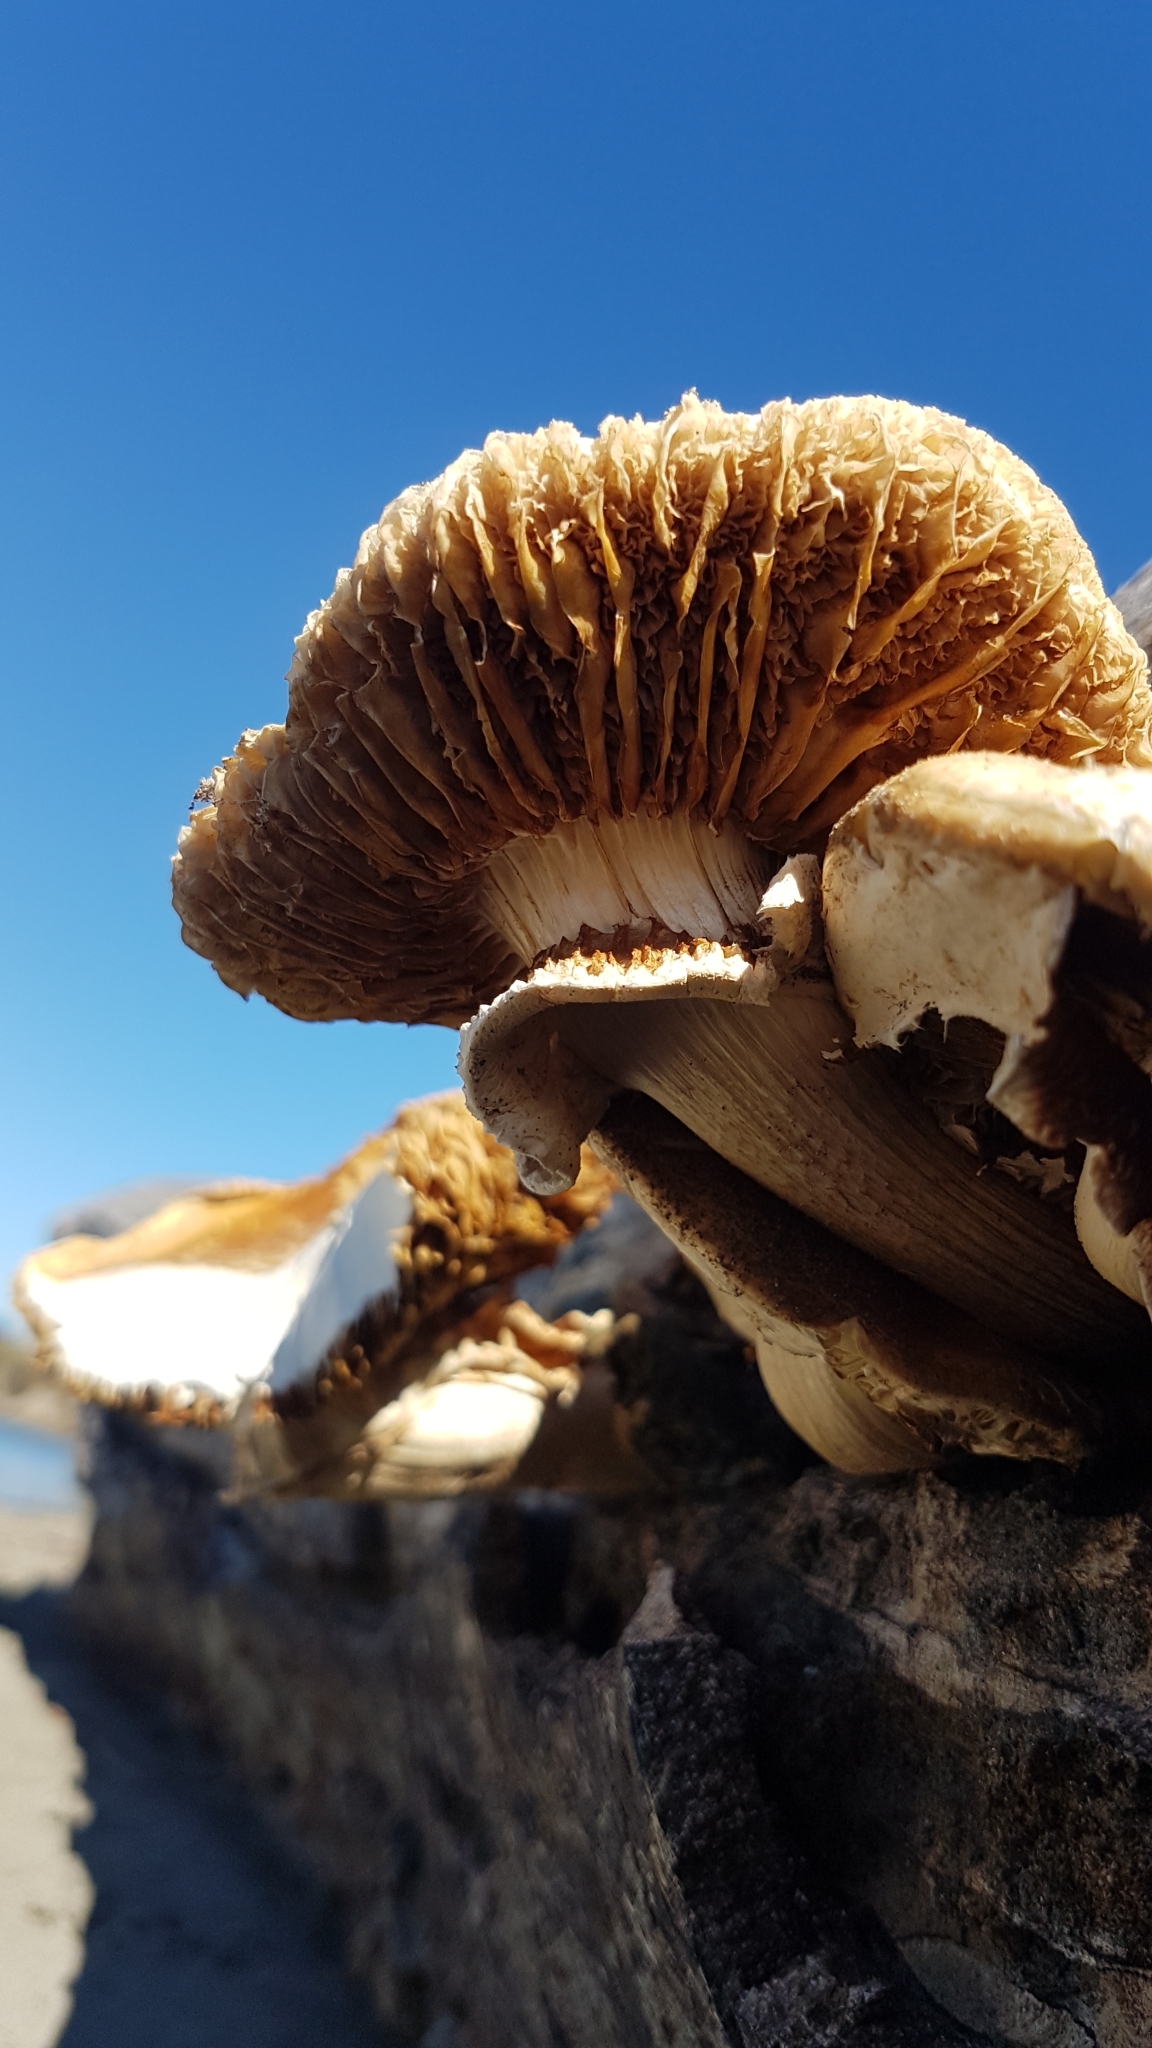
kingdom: Fungi
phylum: Basidiomycota
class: Agaricomycetes
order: Agaricales
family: Tubariaceae
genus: Cyclocybe
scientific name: Cyclocybe parasitica
